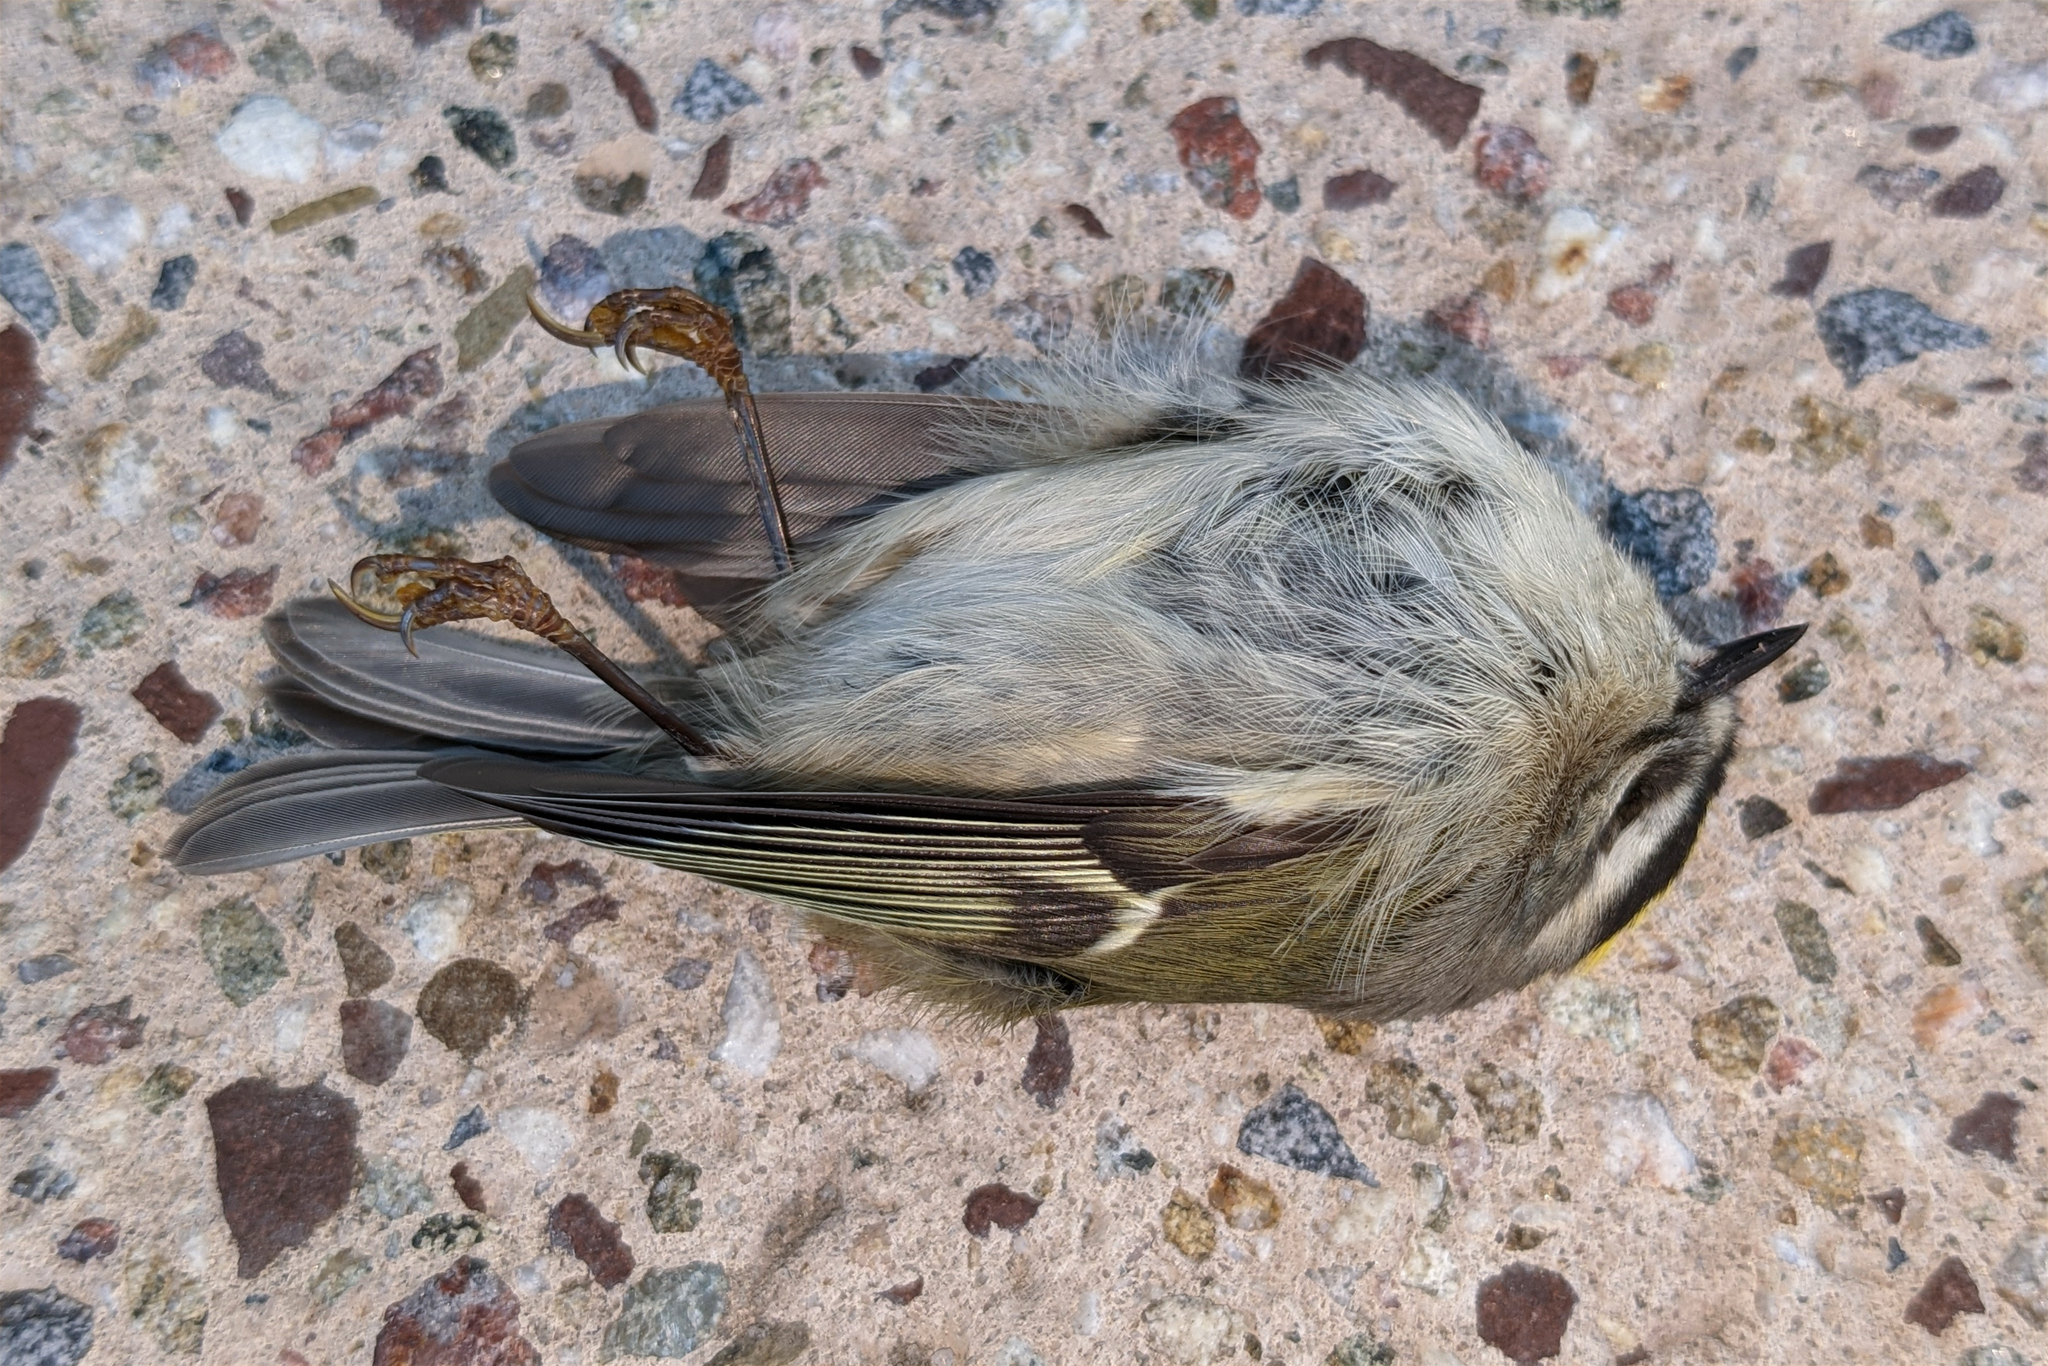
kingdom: Animalia
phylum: Chordata
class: Aves
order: Passeriformes
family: Regulidae
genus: Regulus
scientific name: Regulus satrapa
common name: Golden-crowned kinglet
